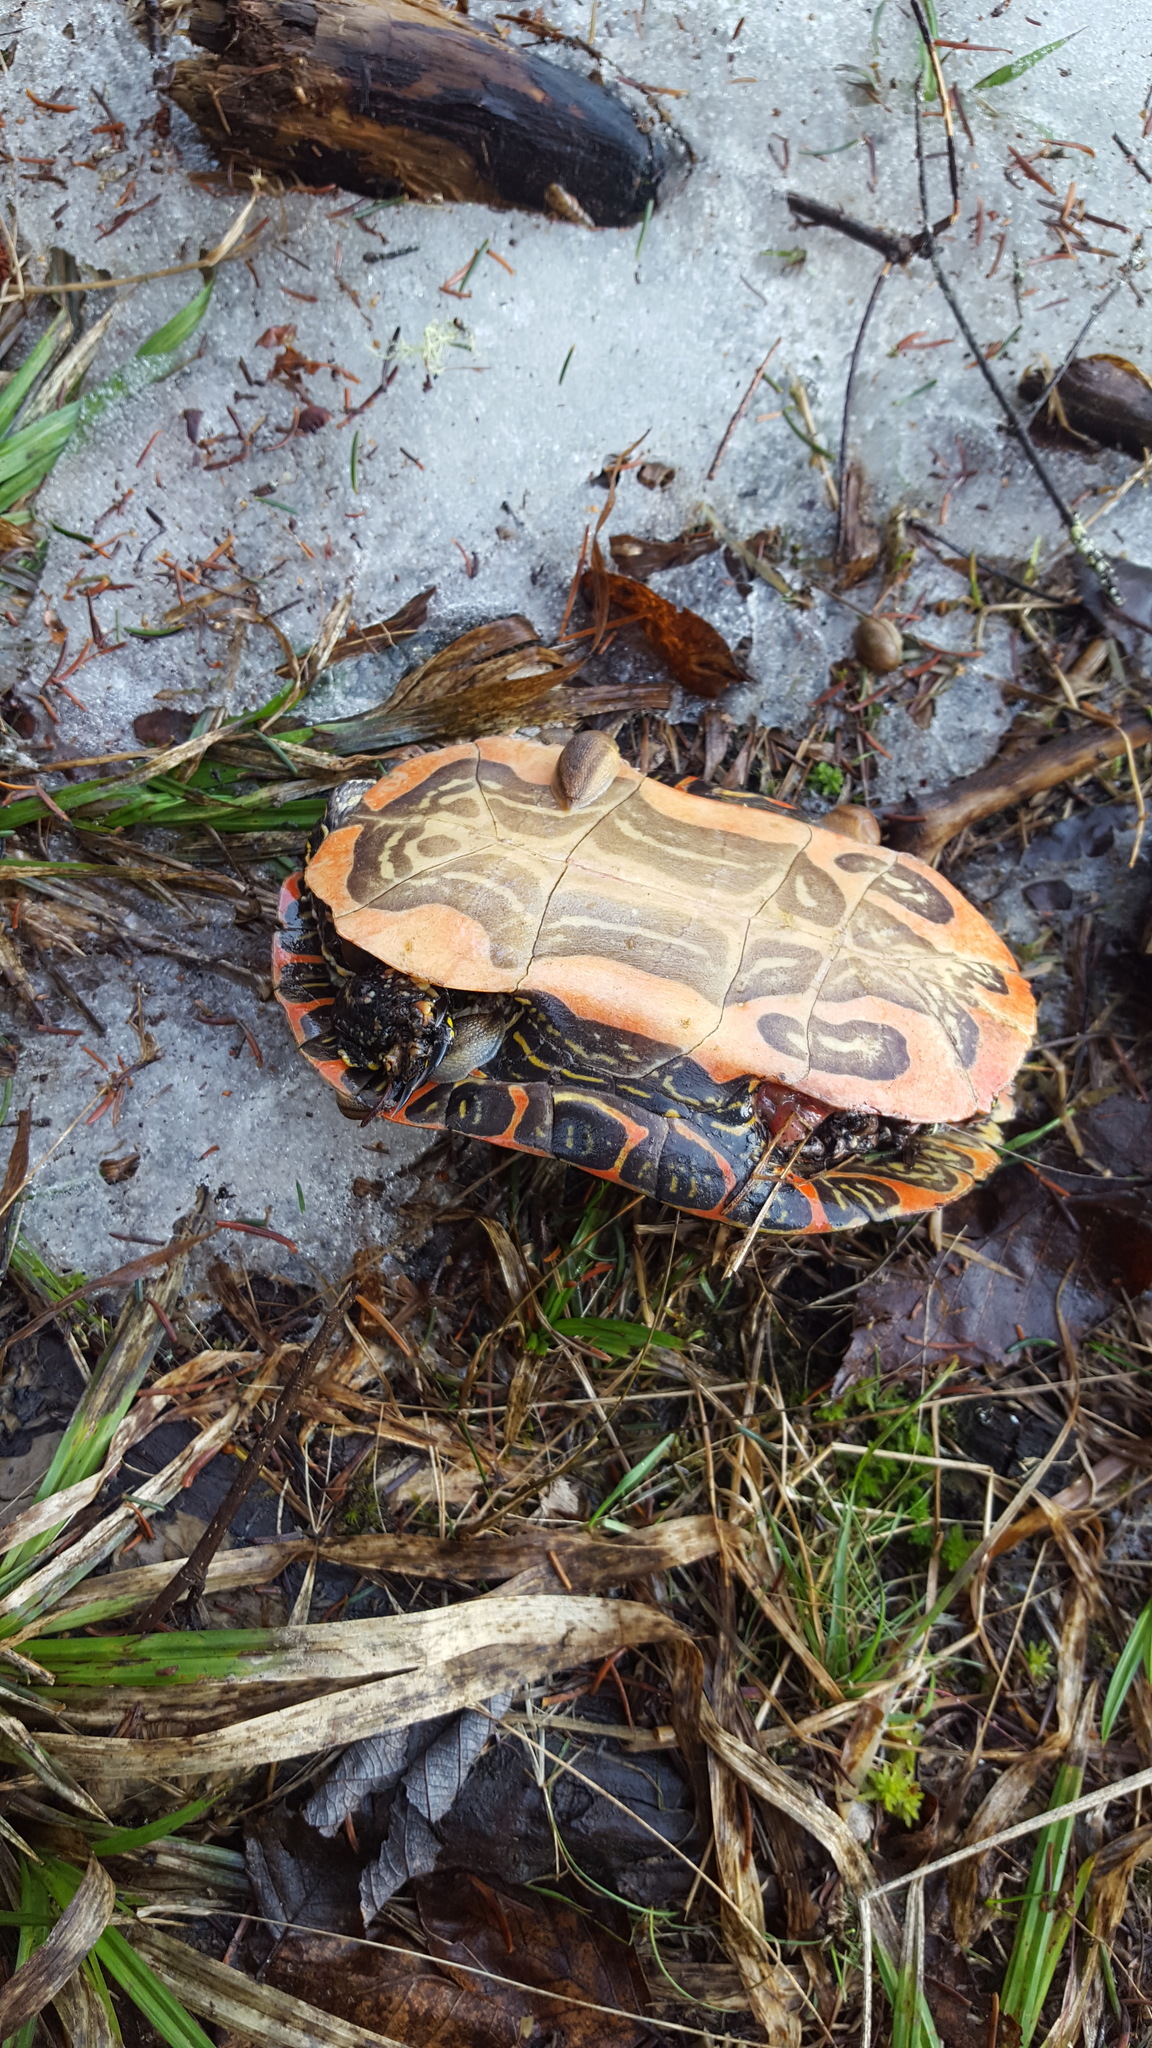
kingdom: Animalia
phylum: Chordata
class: Testudines
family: Emydidae
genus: Chrysemys
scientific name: Chrysemys picta
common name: Painted turtle
